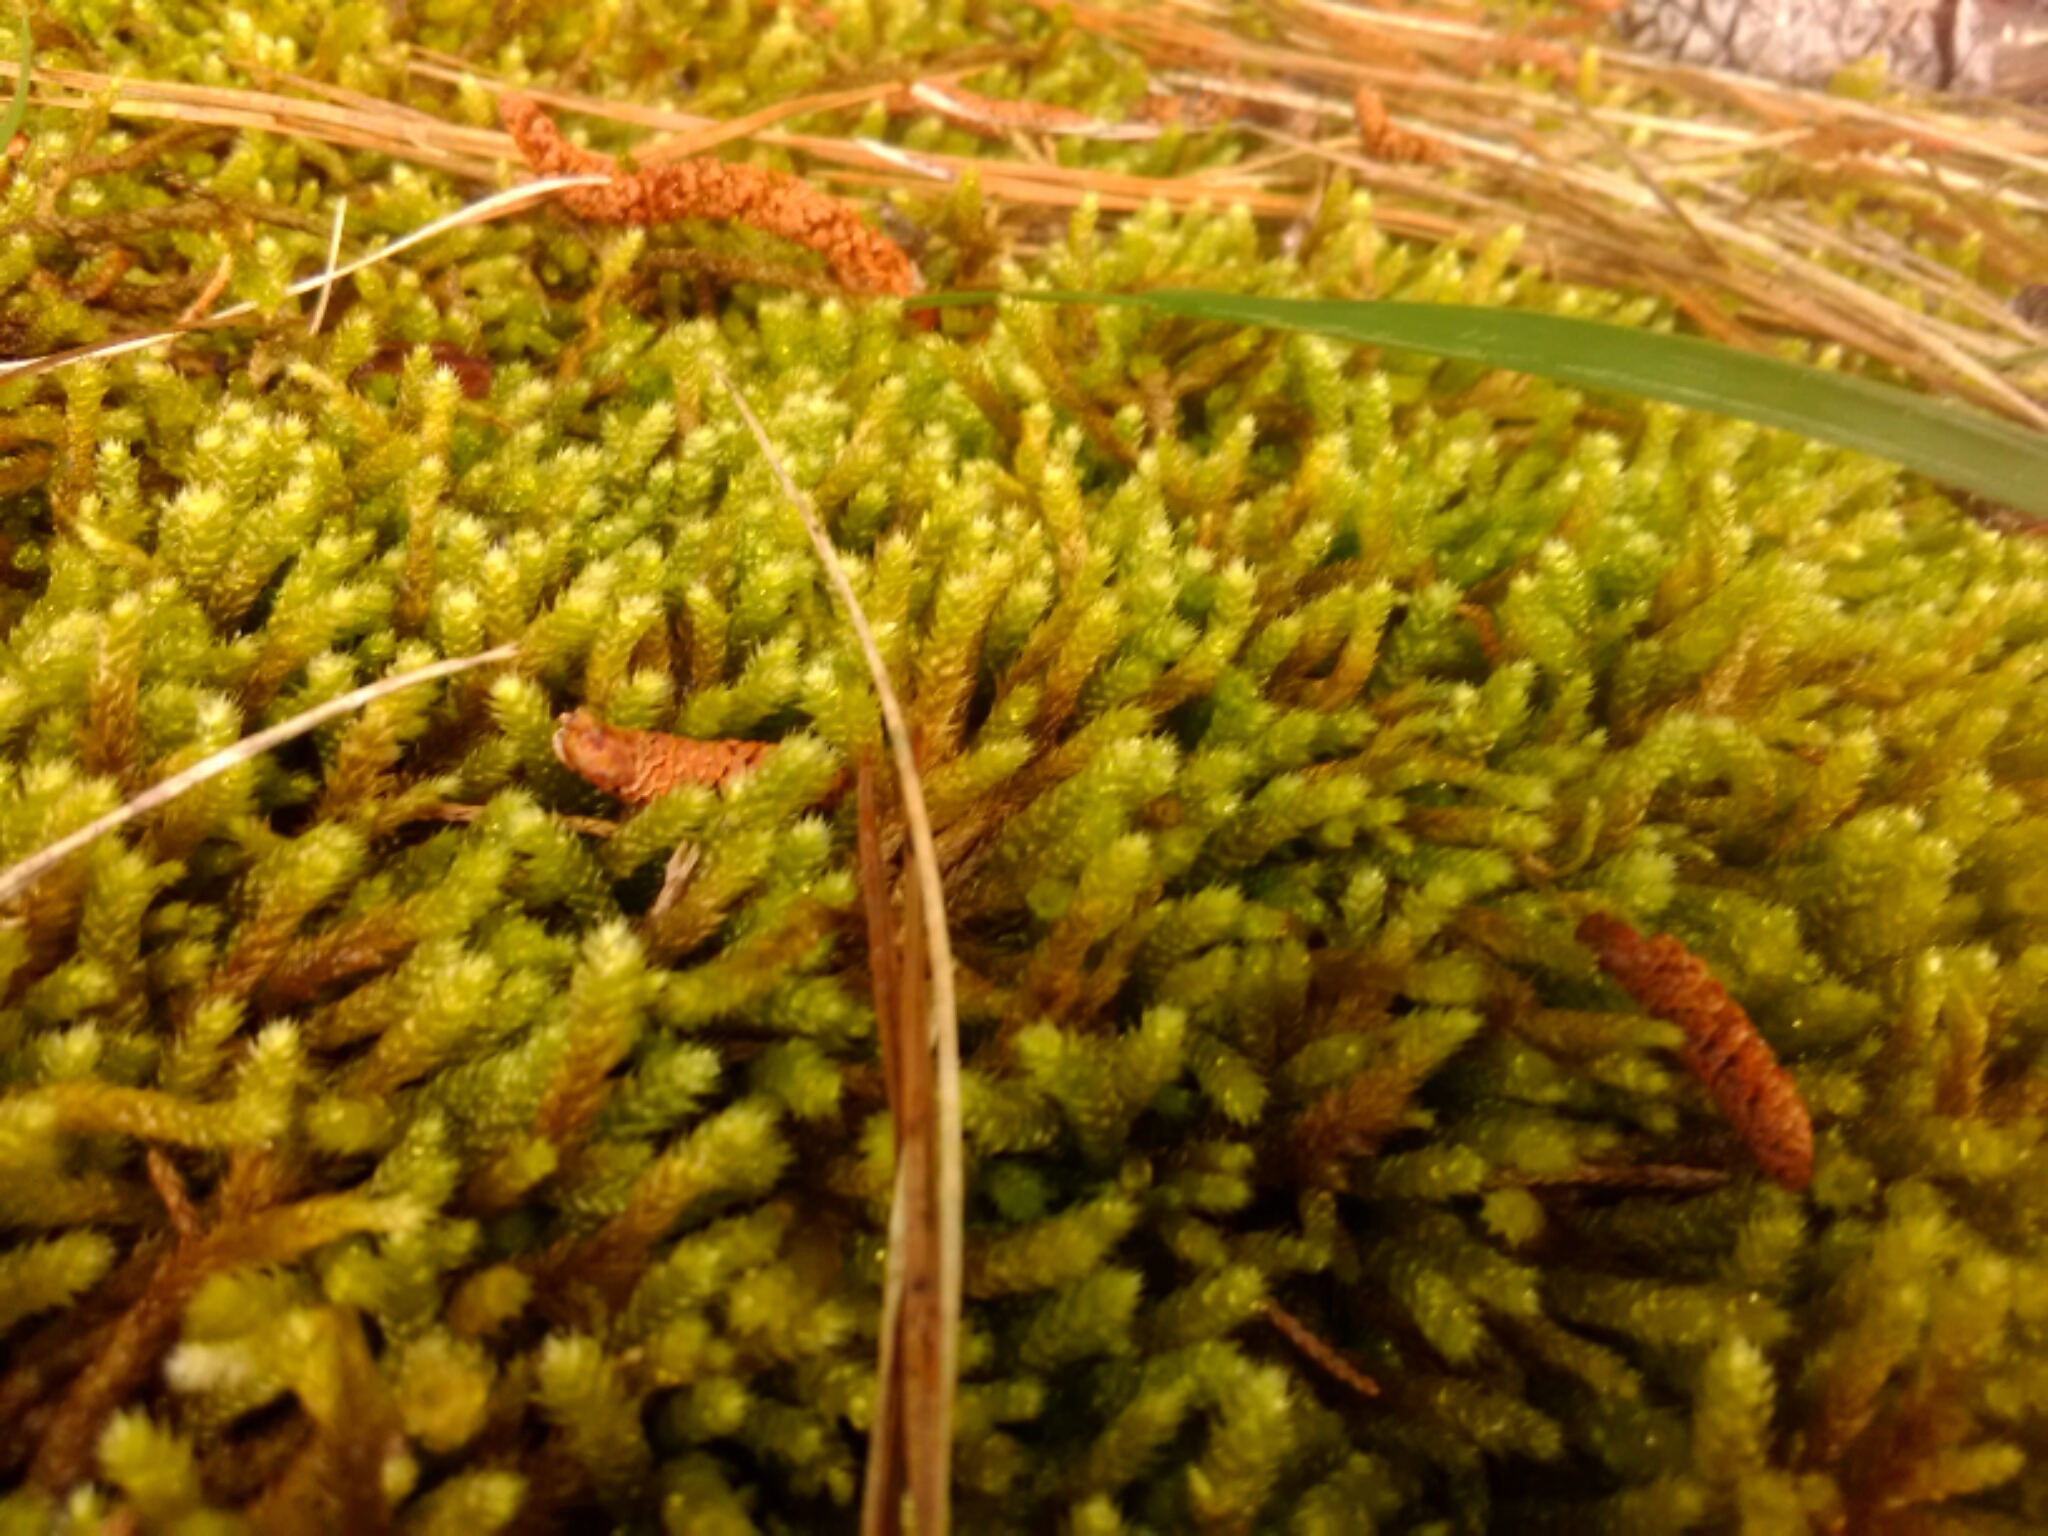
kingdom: Plantae
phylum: Bryophyta
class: Bryopsida
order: Hypnales
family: Brachytheciaceae
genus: Bryoandersonia
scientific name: Bryoandersonia illecebra
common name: Spoon-leaved moss
